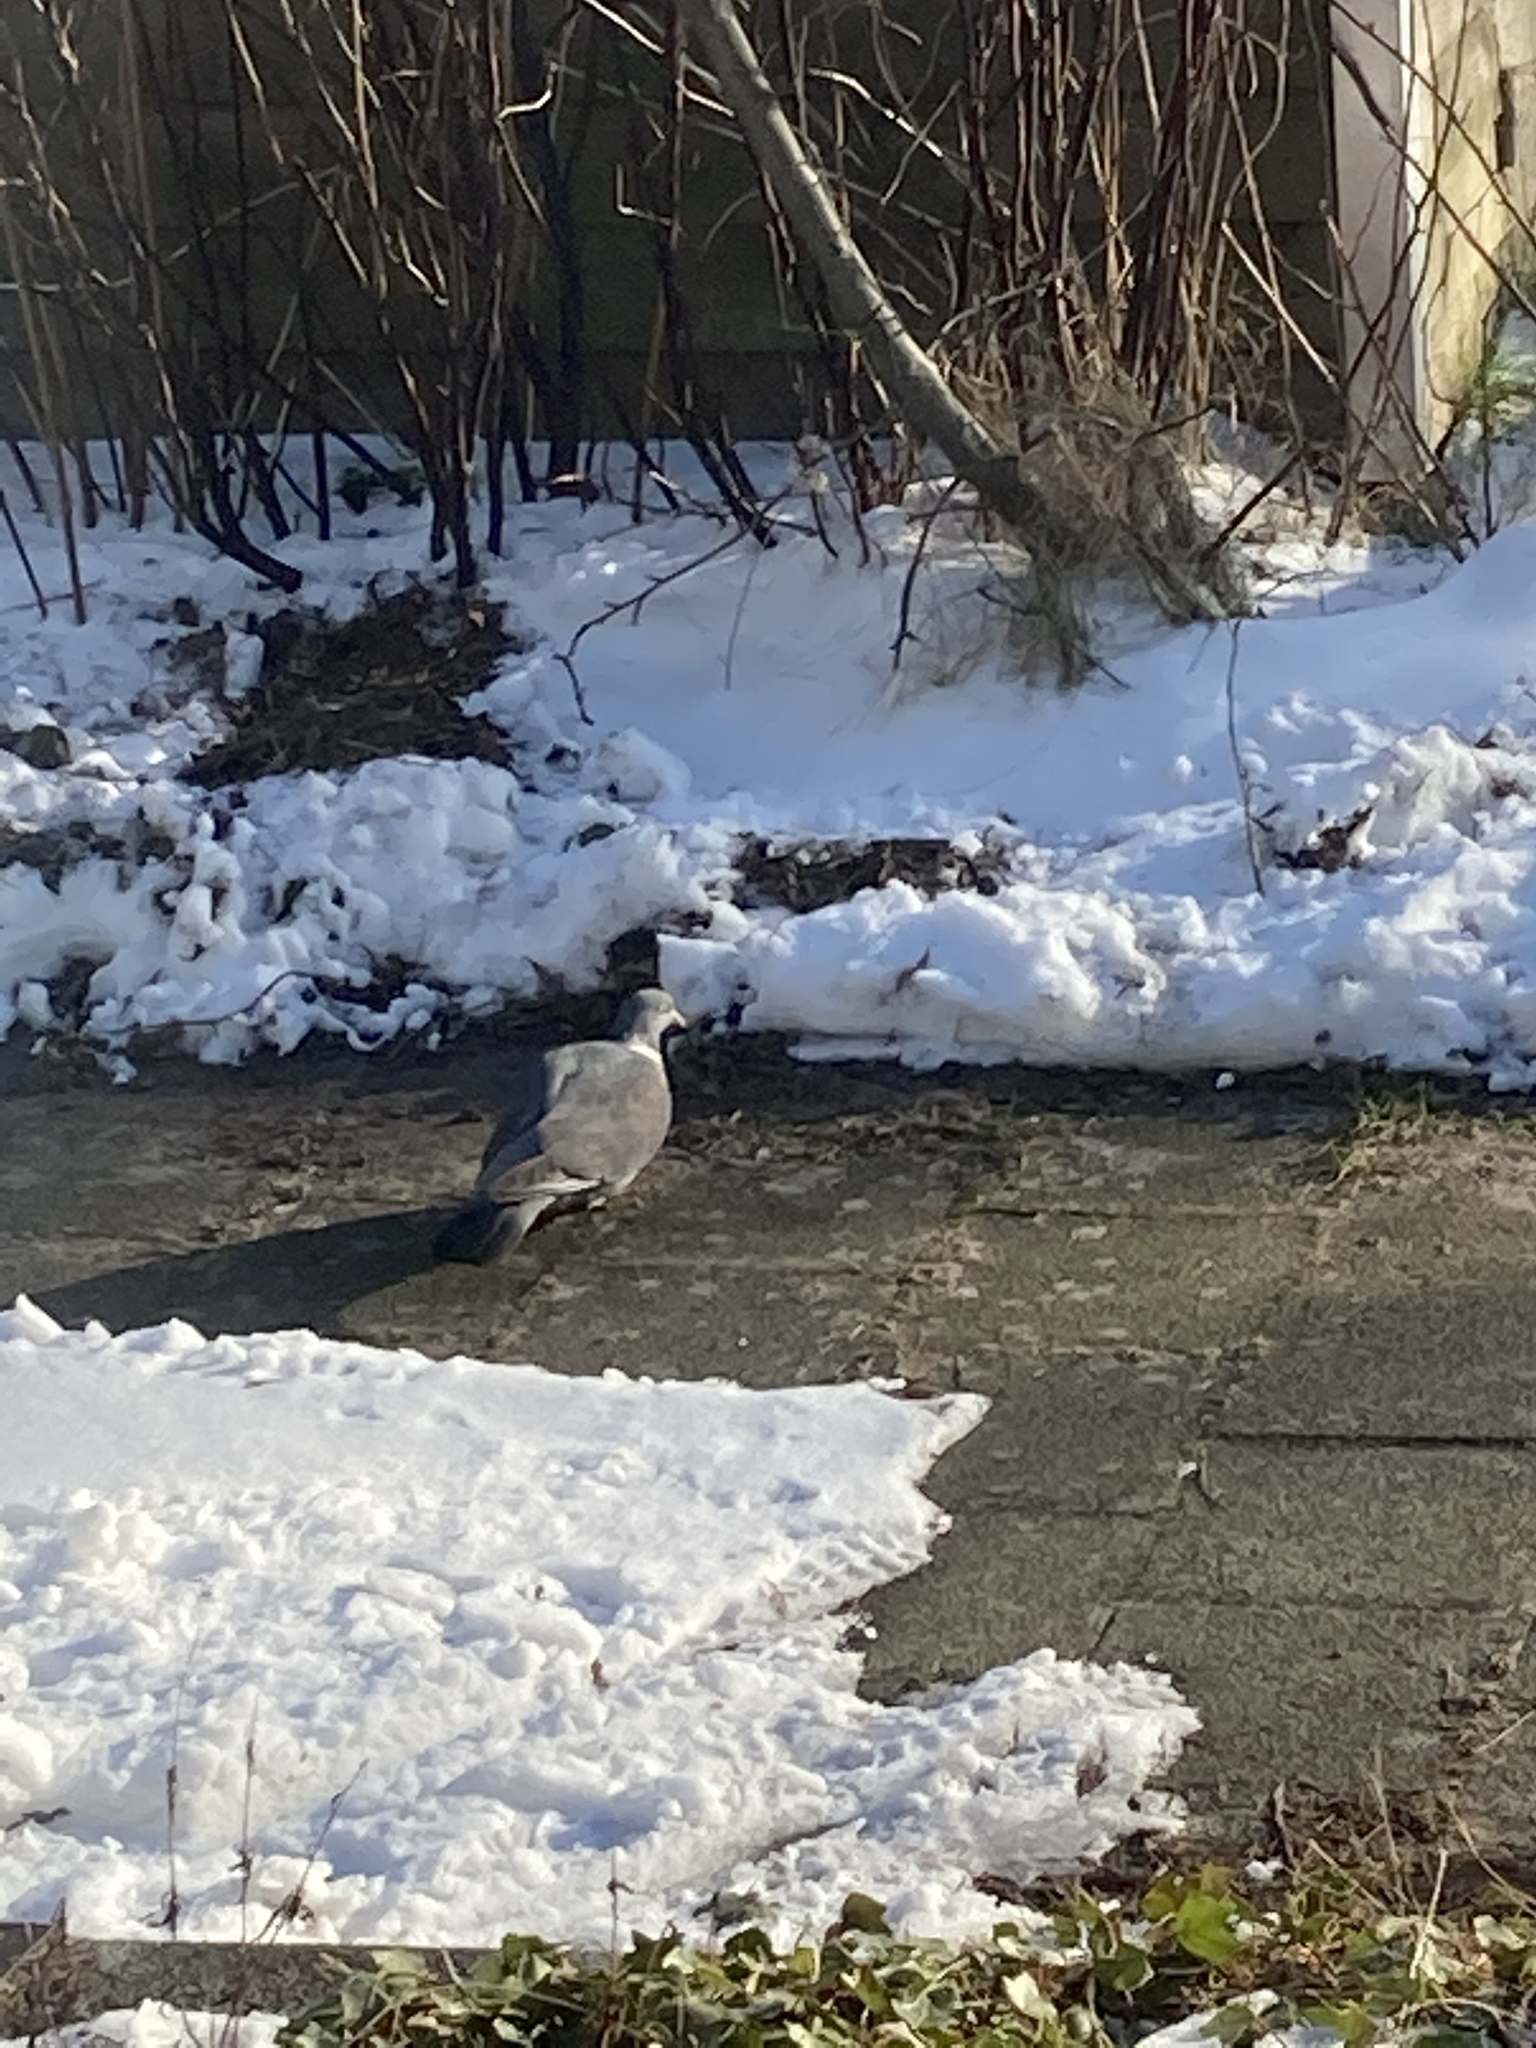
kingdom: Animalia
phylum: Chordata
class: Aves
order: Columbiformes
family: Columbidae
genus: Columba
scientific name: Columba palumbus
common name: Common wood pigeon
